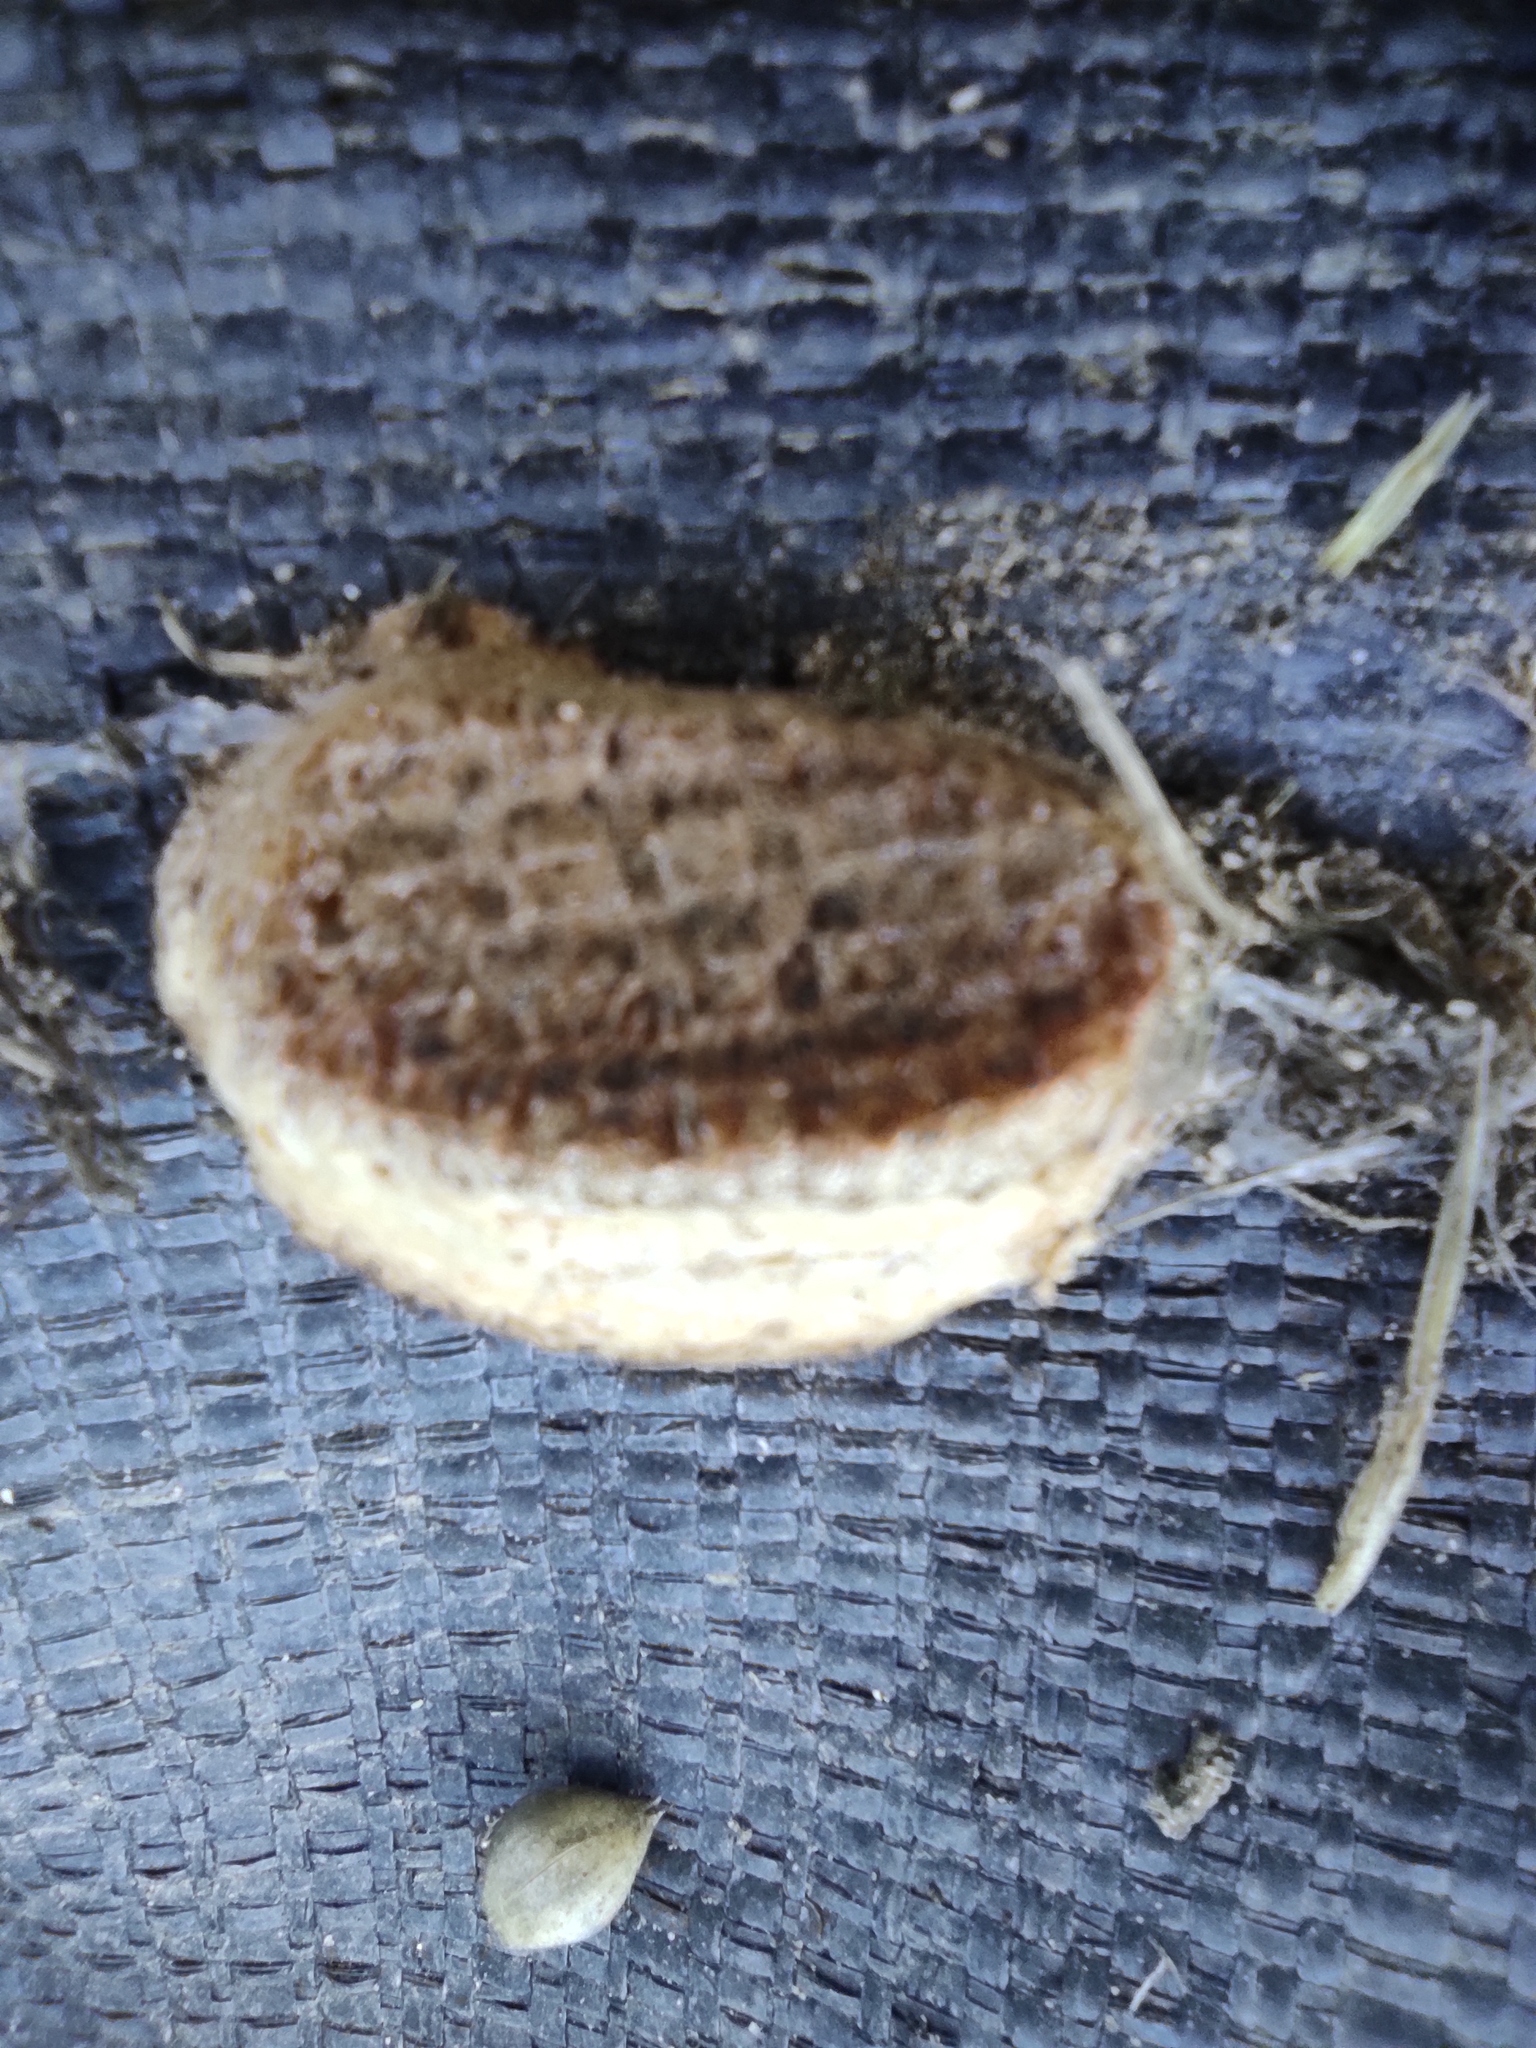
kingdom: Animalia
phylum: Arthropoda
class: Insecta
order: Mantodea
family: Mantidae
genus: Mantis
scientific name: Mantis religiosa
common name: Praying mantis
